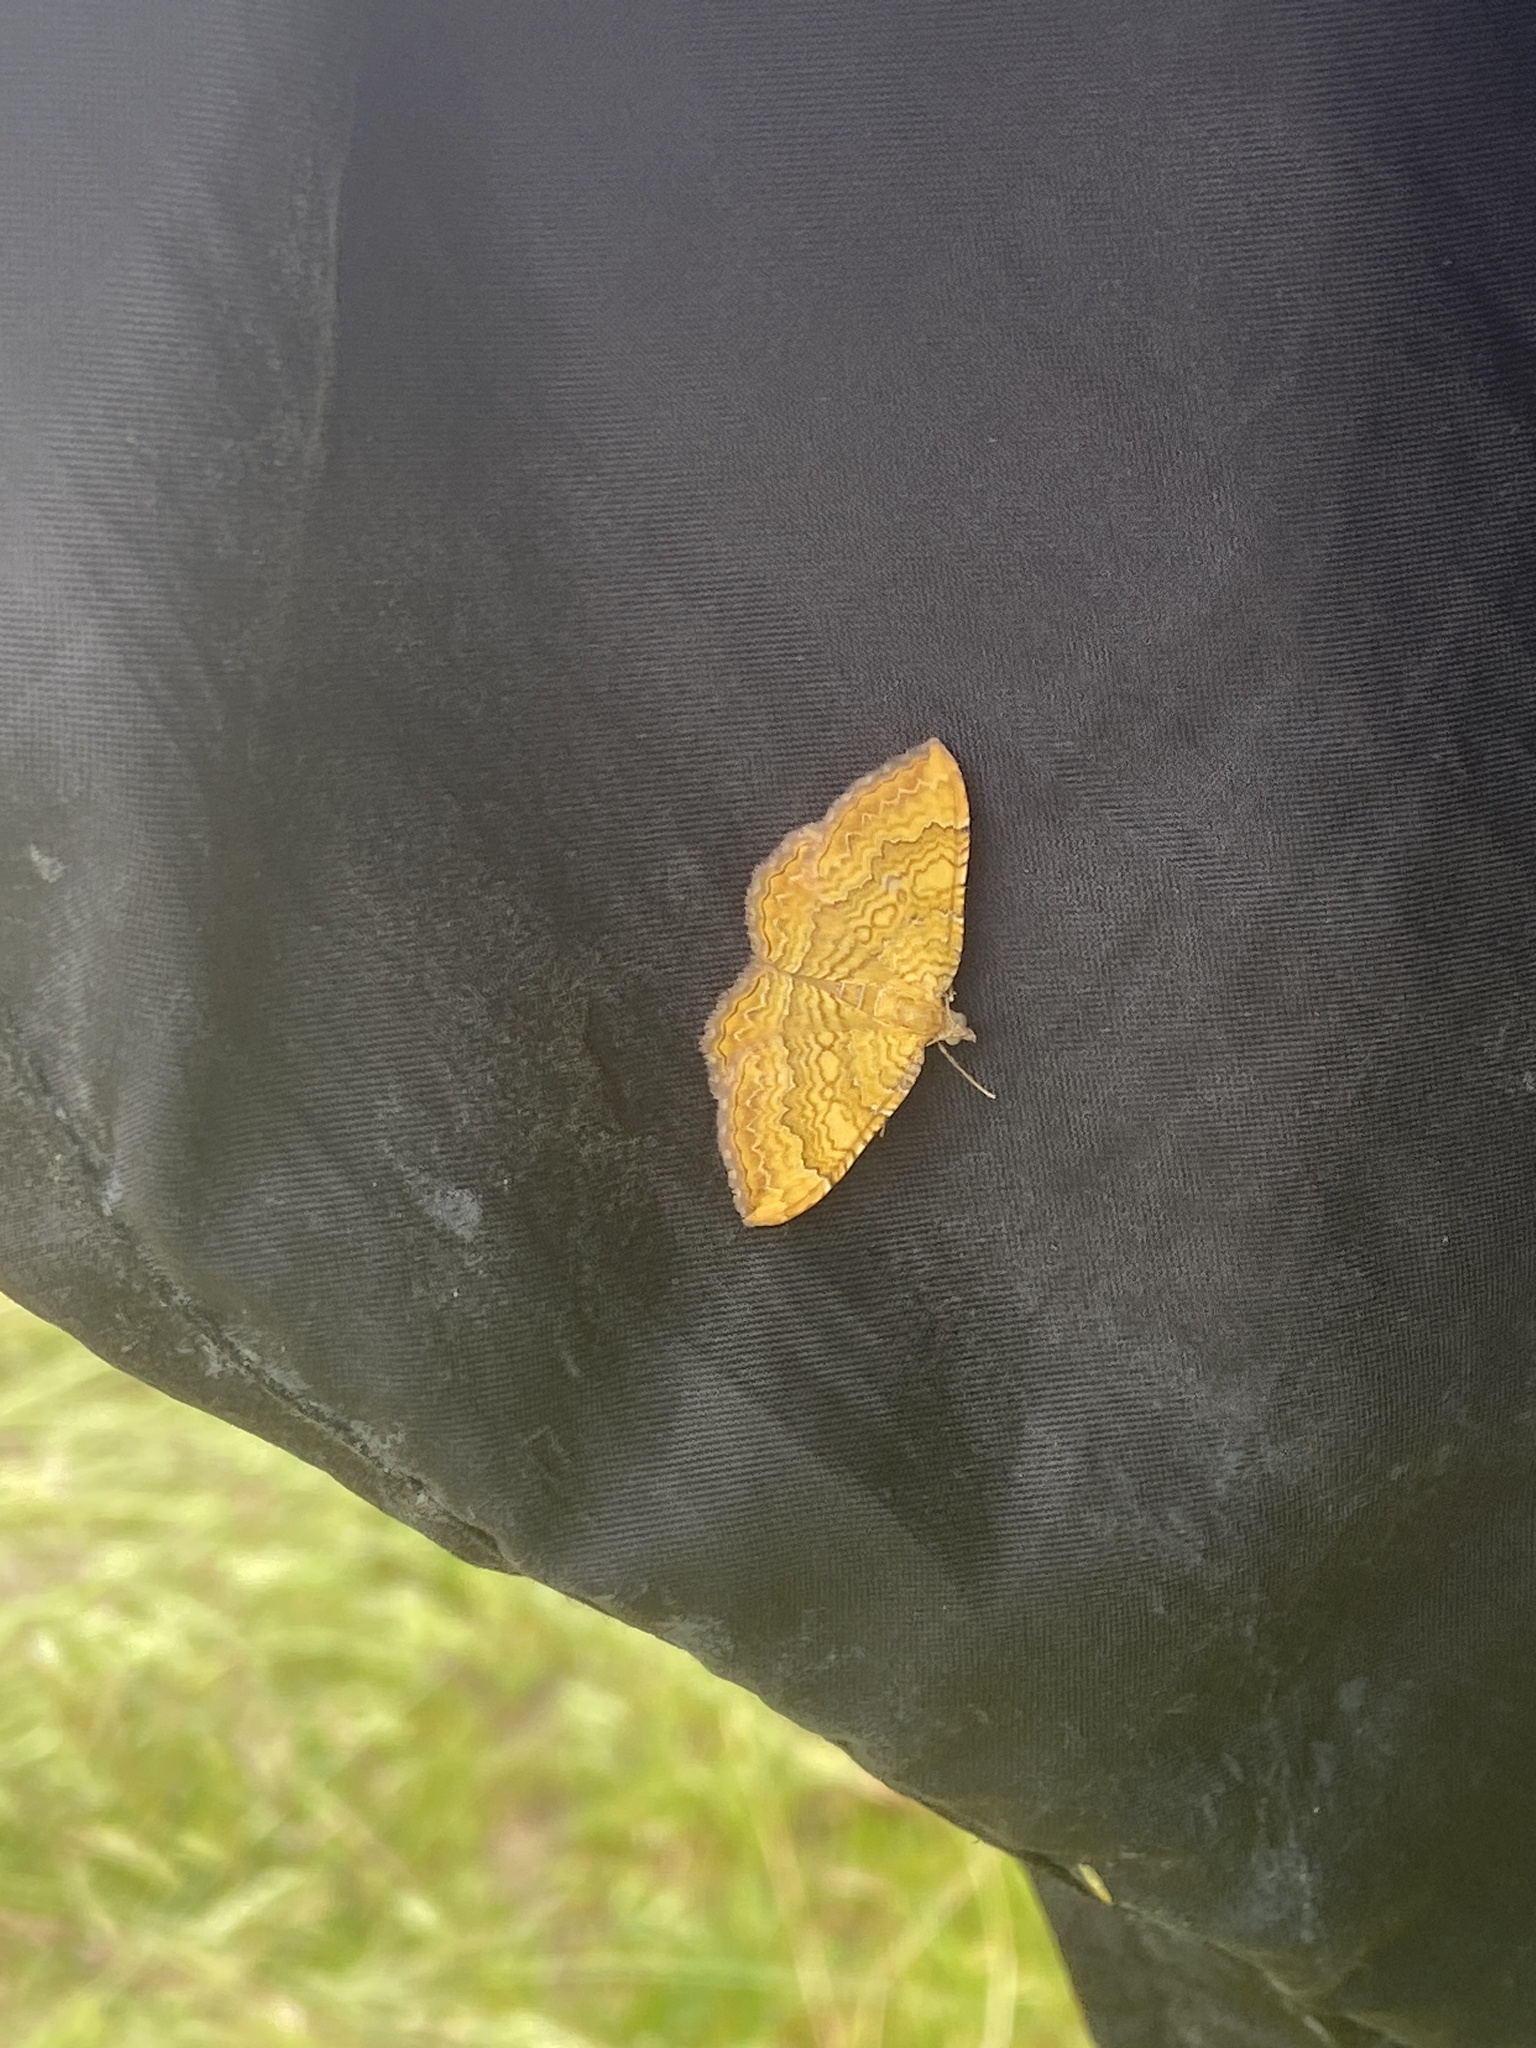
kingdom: Animalia
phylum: Arthropoda
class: Insecta
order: Lepidoptera
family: Geometridae
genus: Camptogramma
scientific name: Camptogramma bilineata
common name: Yellow shell
